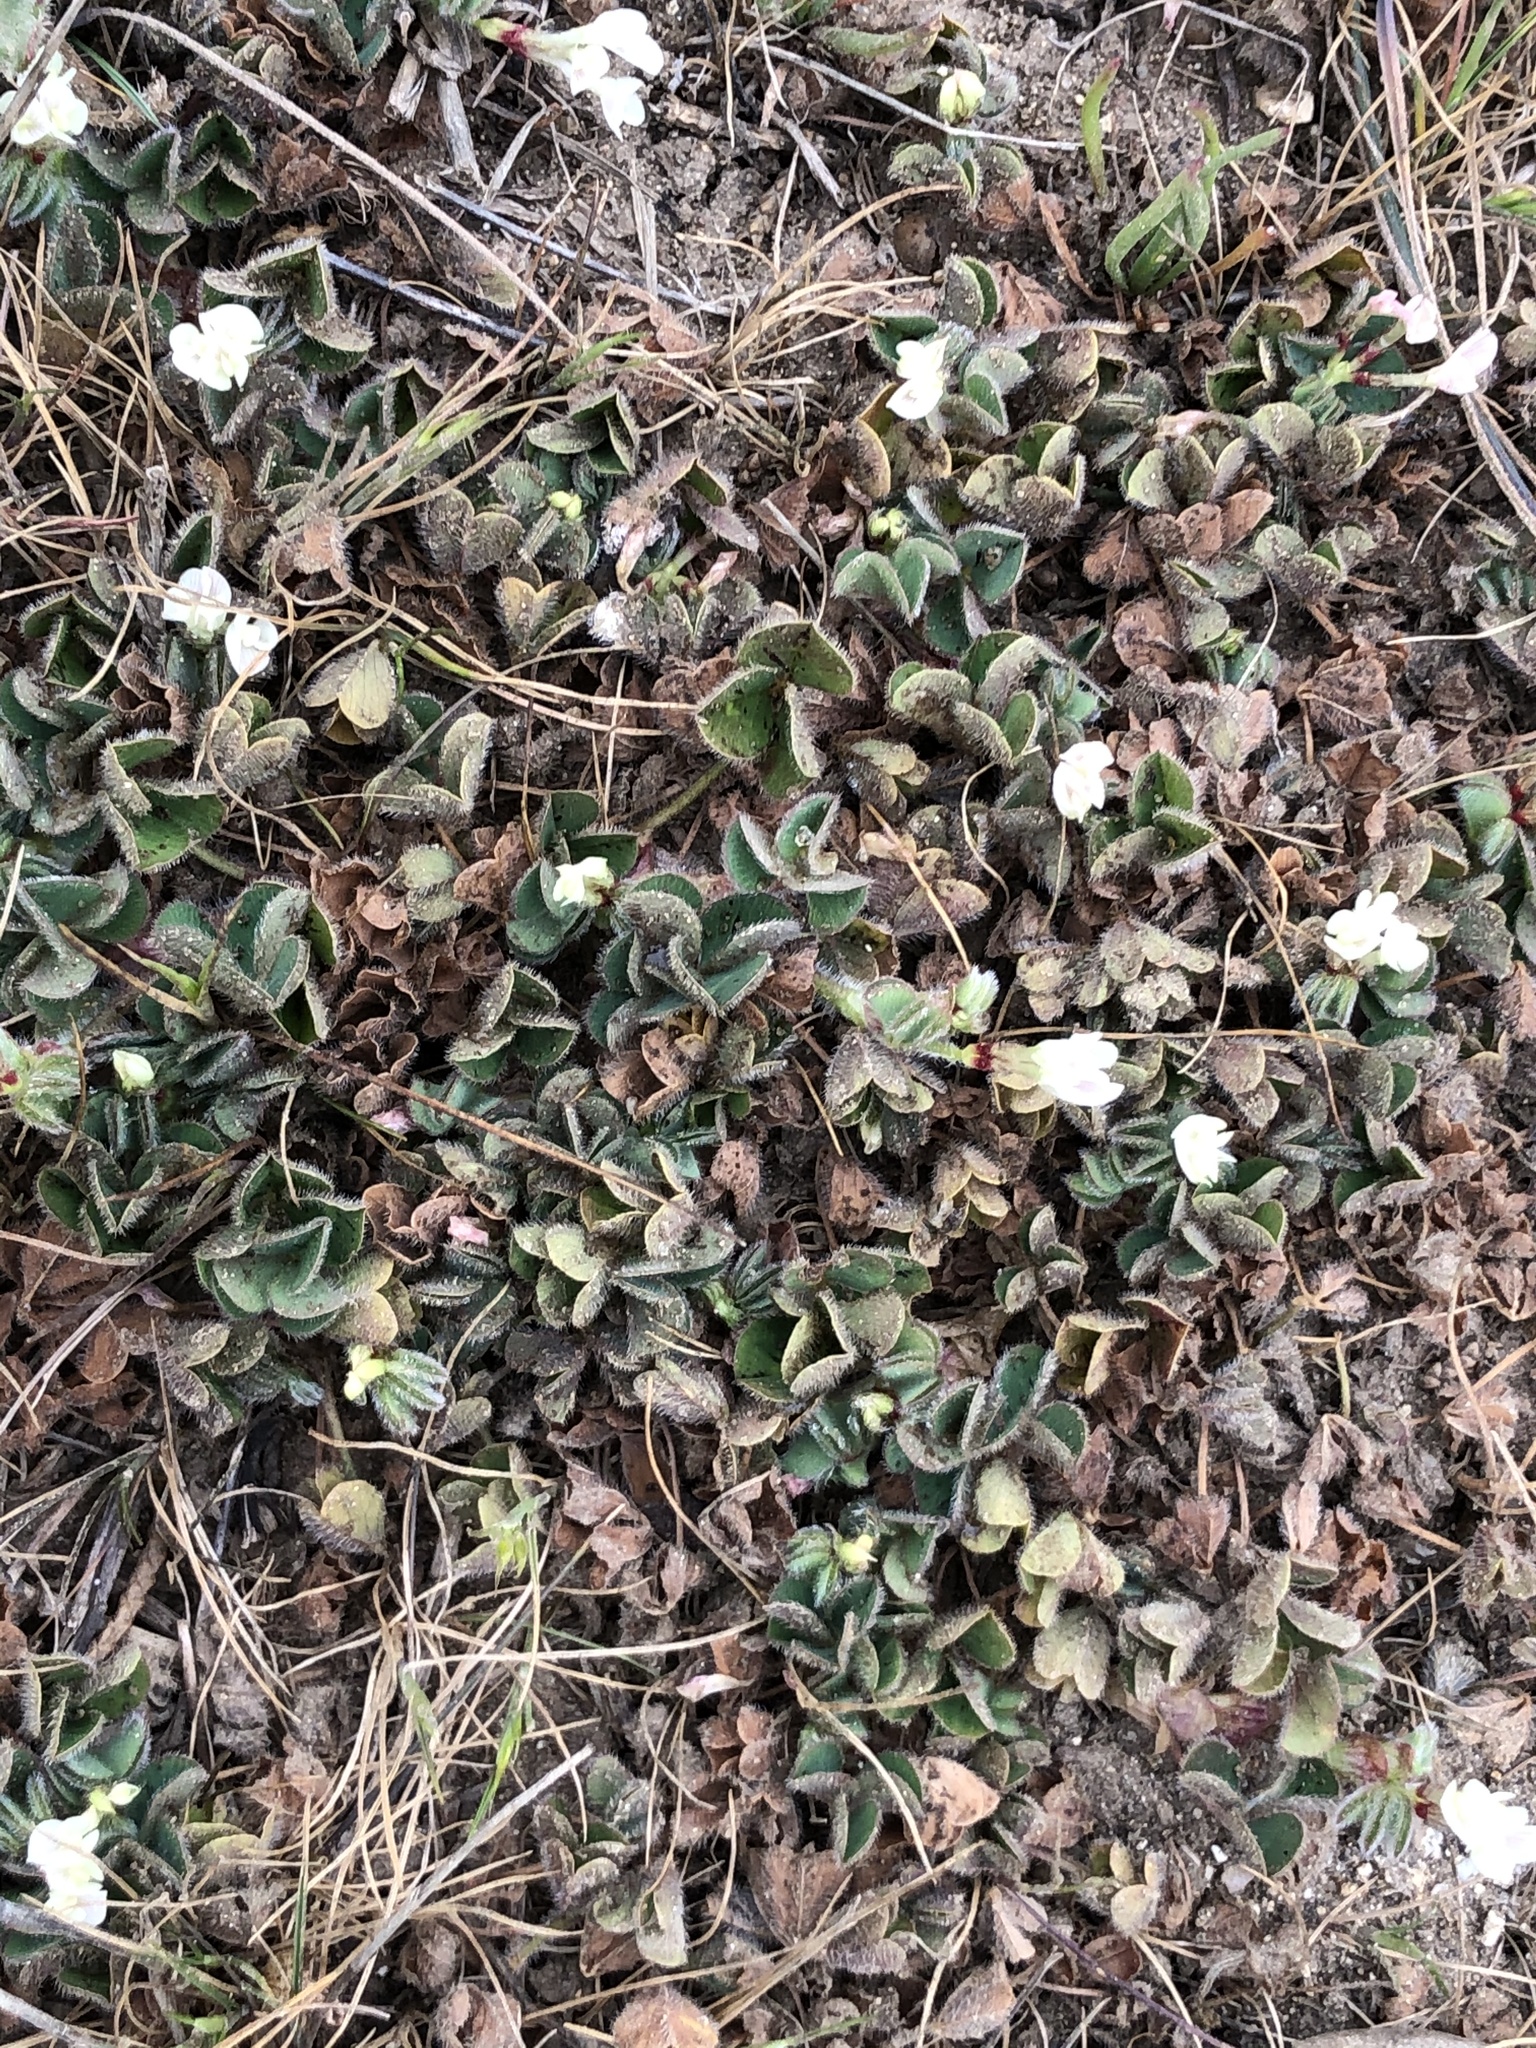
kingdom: Plantae
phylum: Tracheophyta
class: Magnoliopsida
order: Fabales
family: Fabaceae
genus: Trifolium
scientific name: Trifolium subterraneum
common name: Subterranean clover
